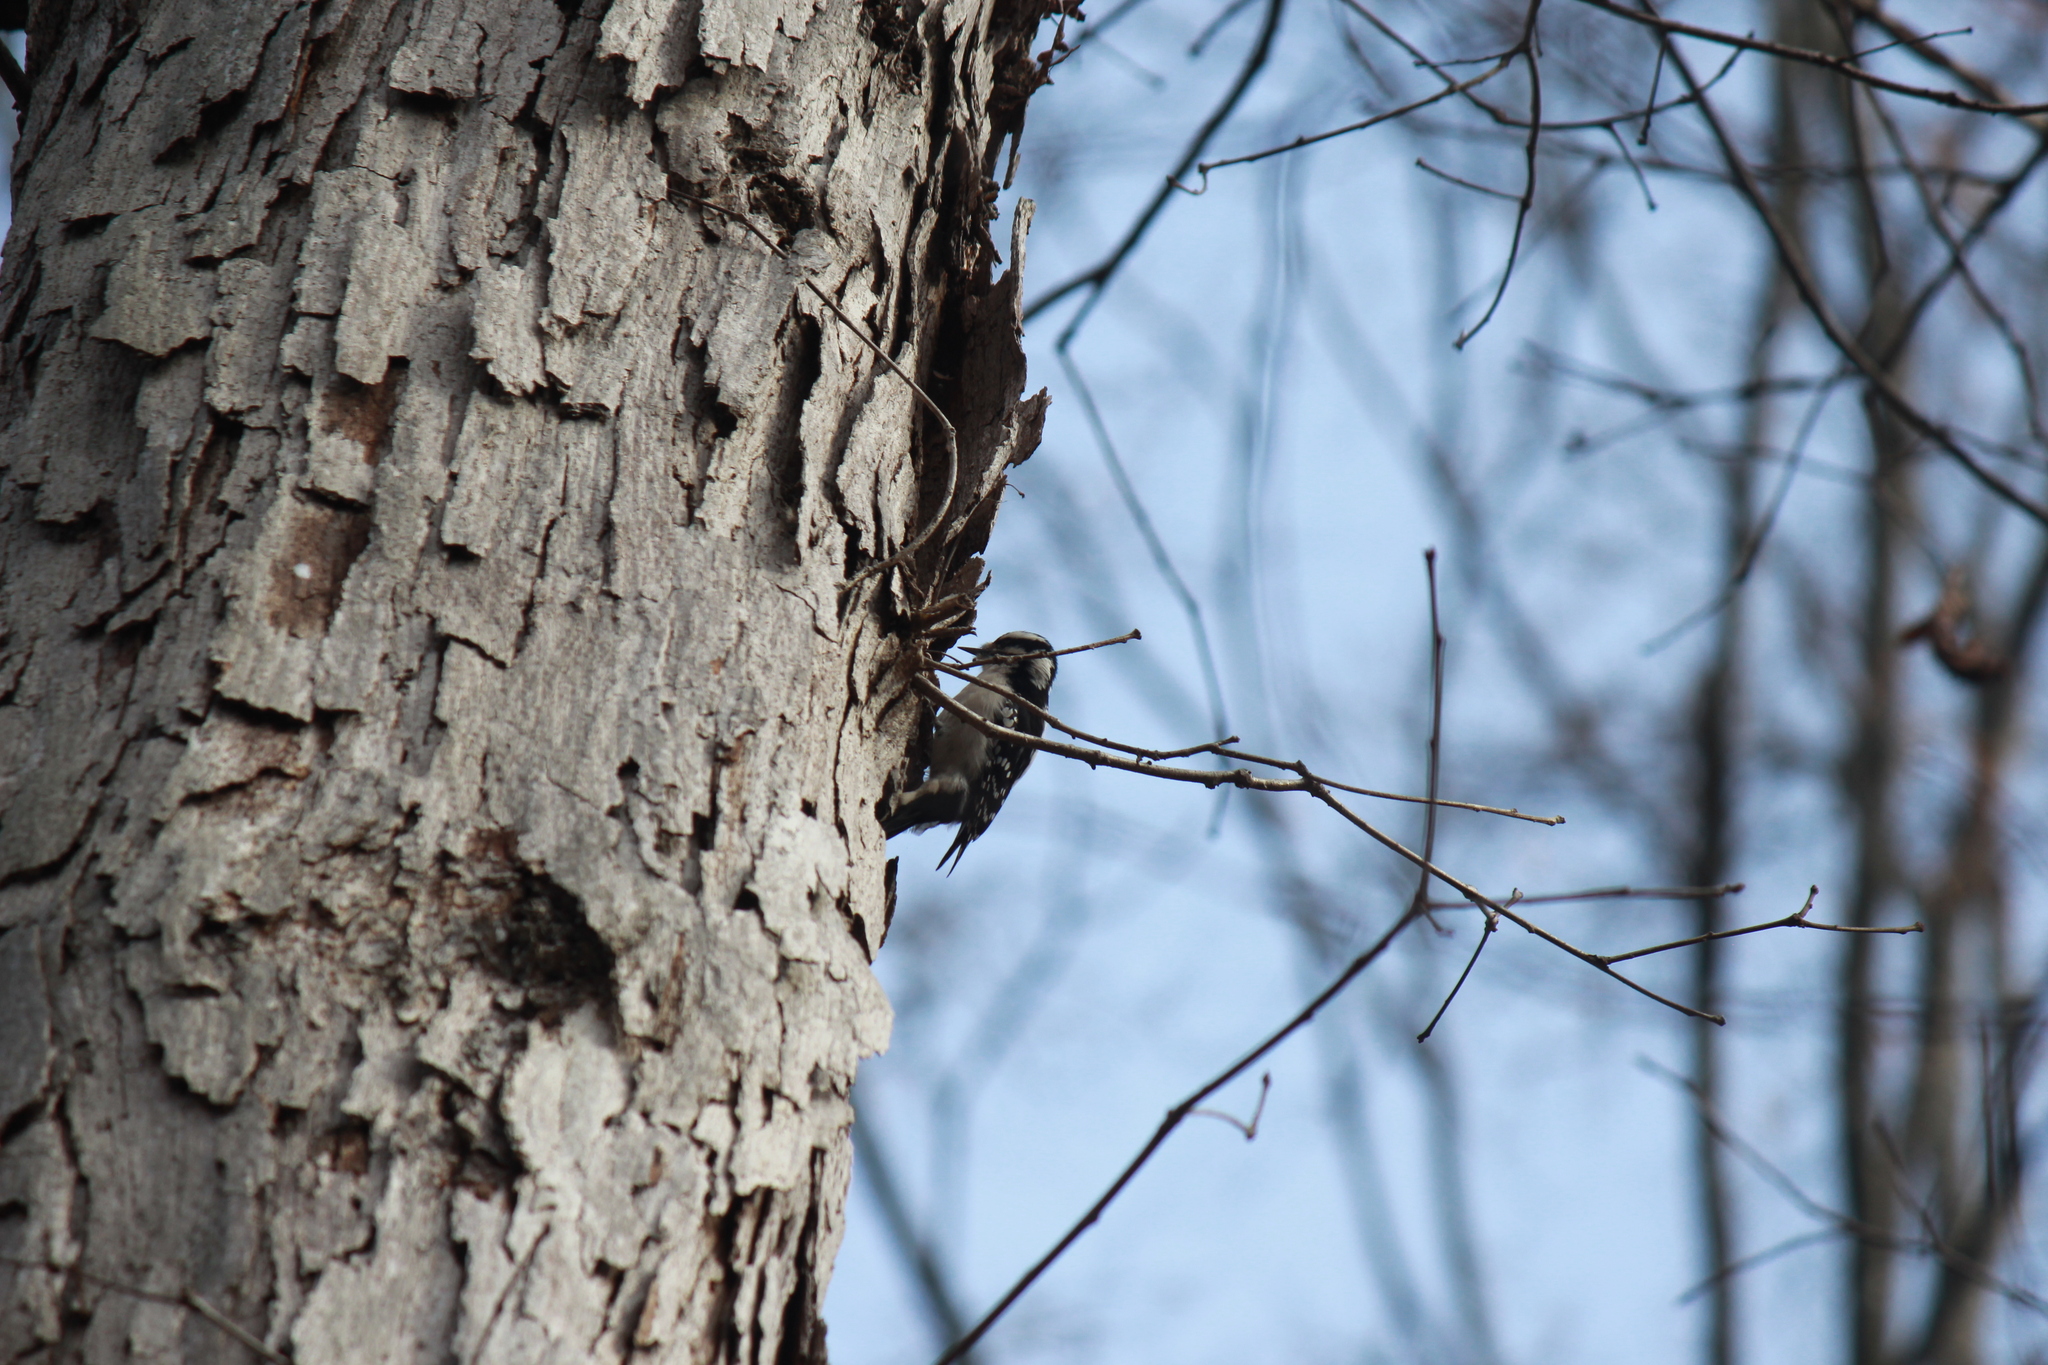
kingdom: Animalia
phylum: Chordata
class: Aves
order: Piciformes
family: Picidae
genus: Leuconotopicus
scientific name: Leuconotopicus villosus
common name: Hairy woodpecker
